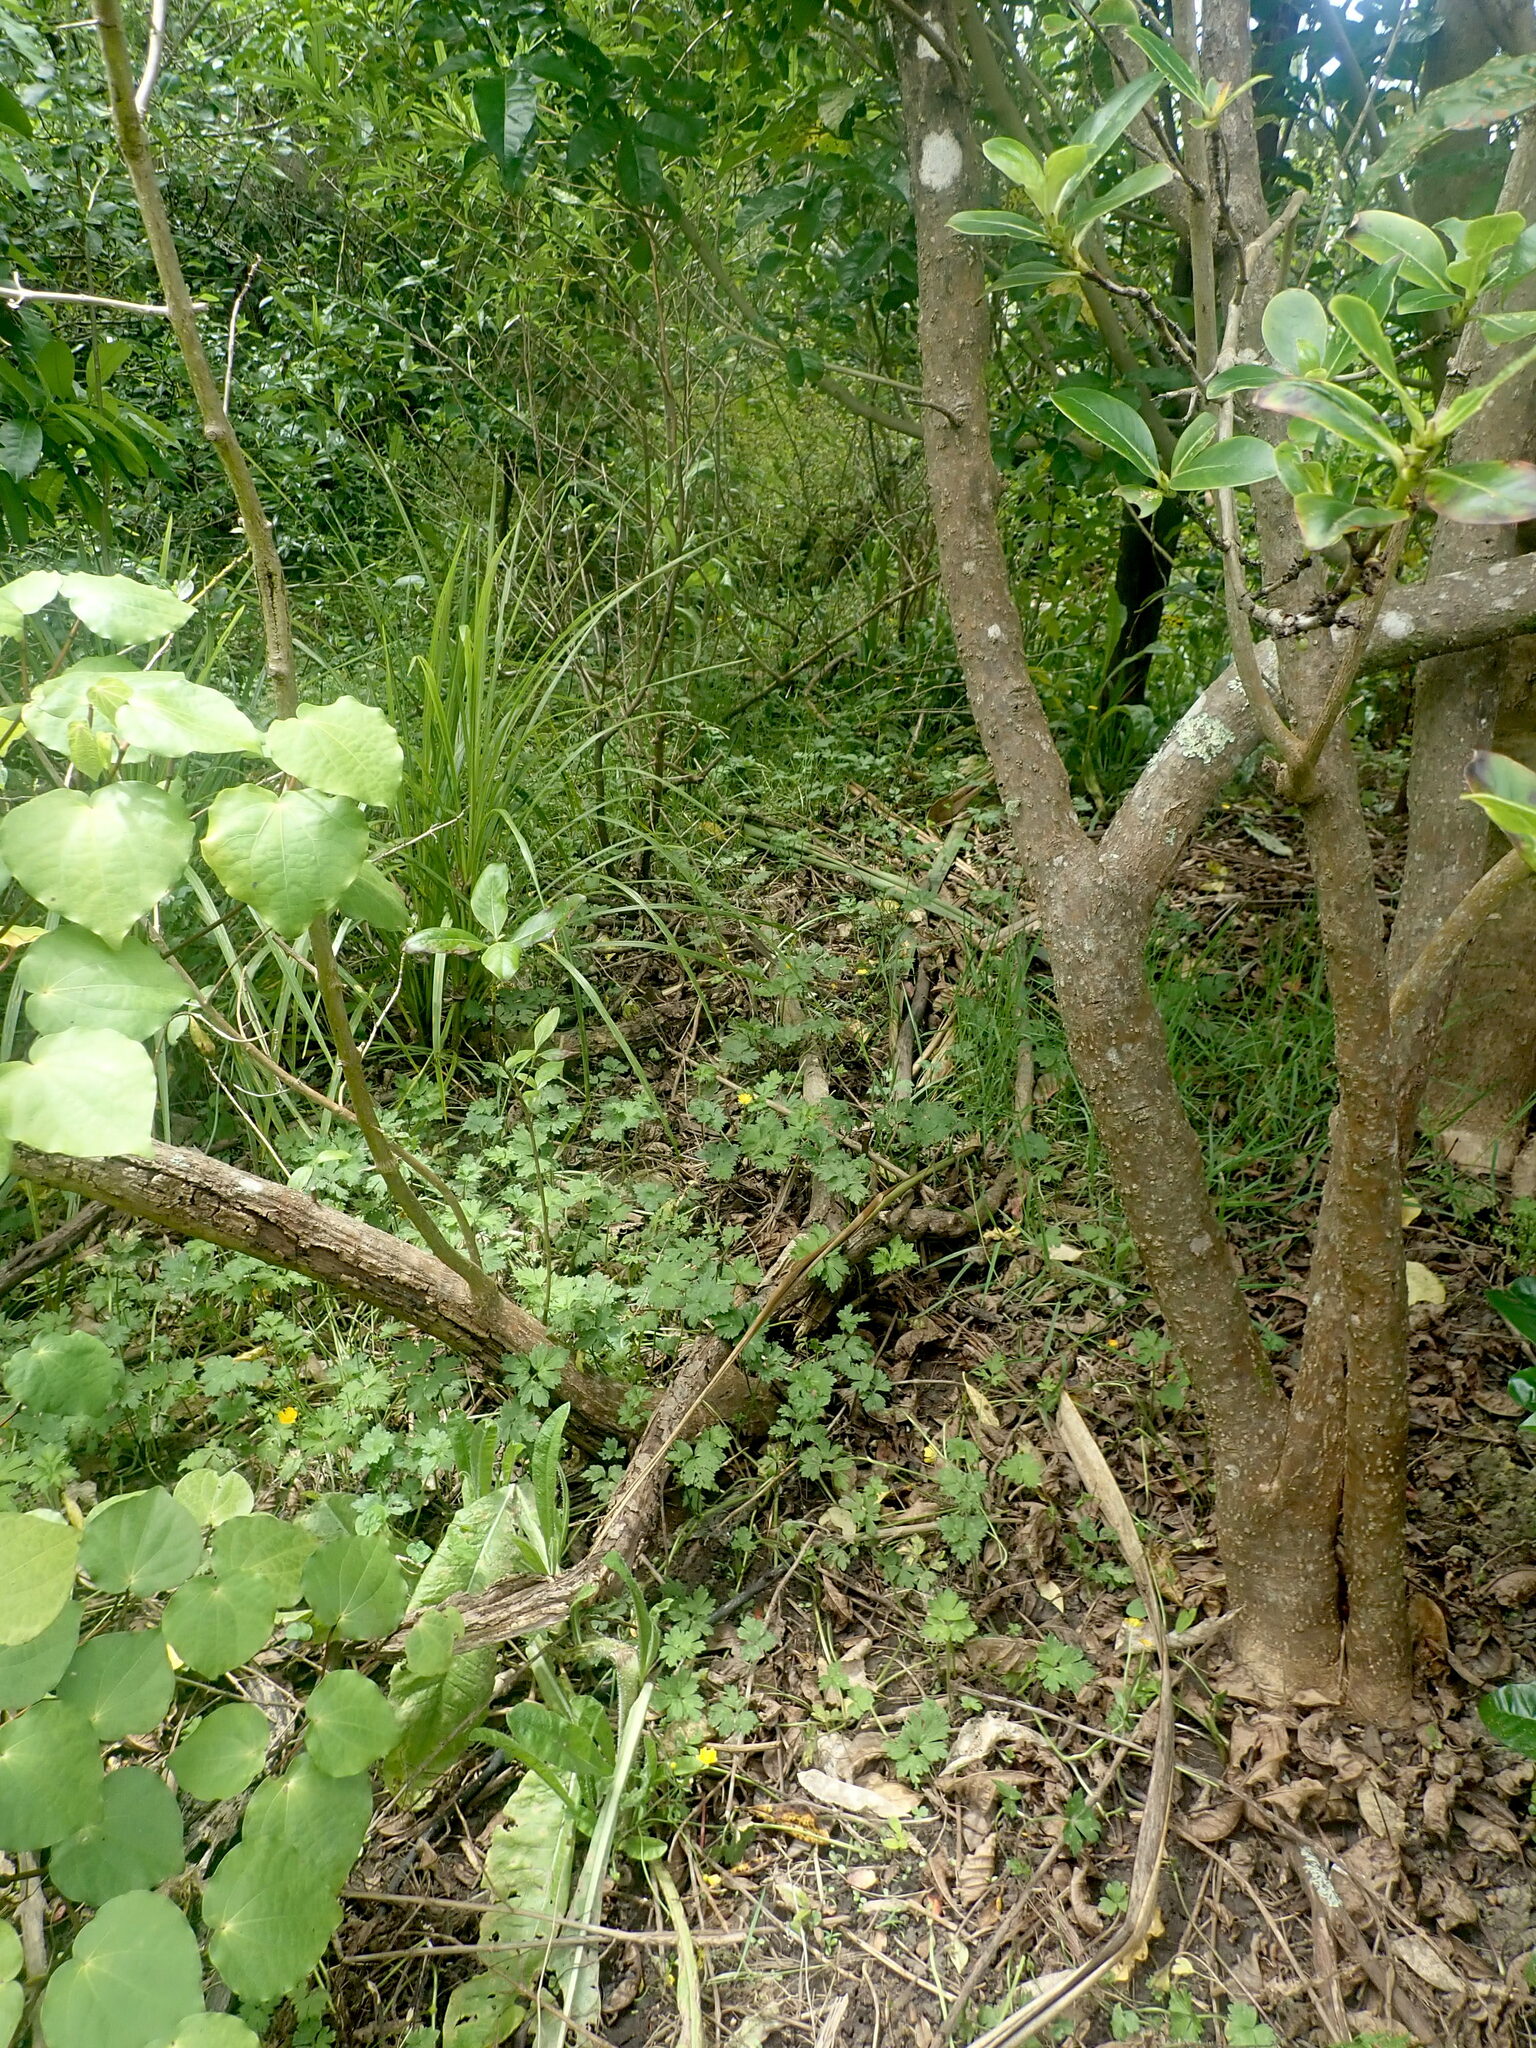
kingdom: Plantae
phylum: Tracheophyta
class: Magnoliopsida
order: Proteales
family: Proteaceae
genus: Knightia
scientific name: Knightia excelsa
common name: New zealand-honeysuckle
